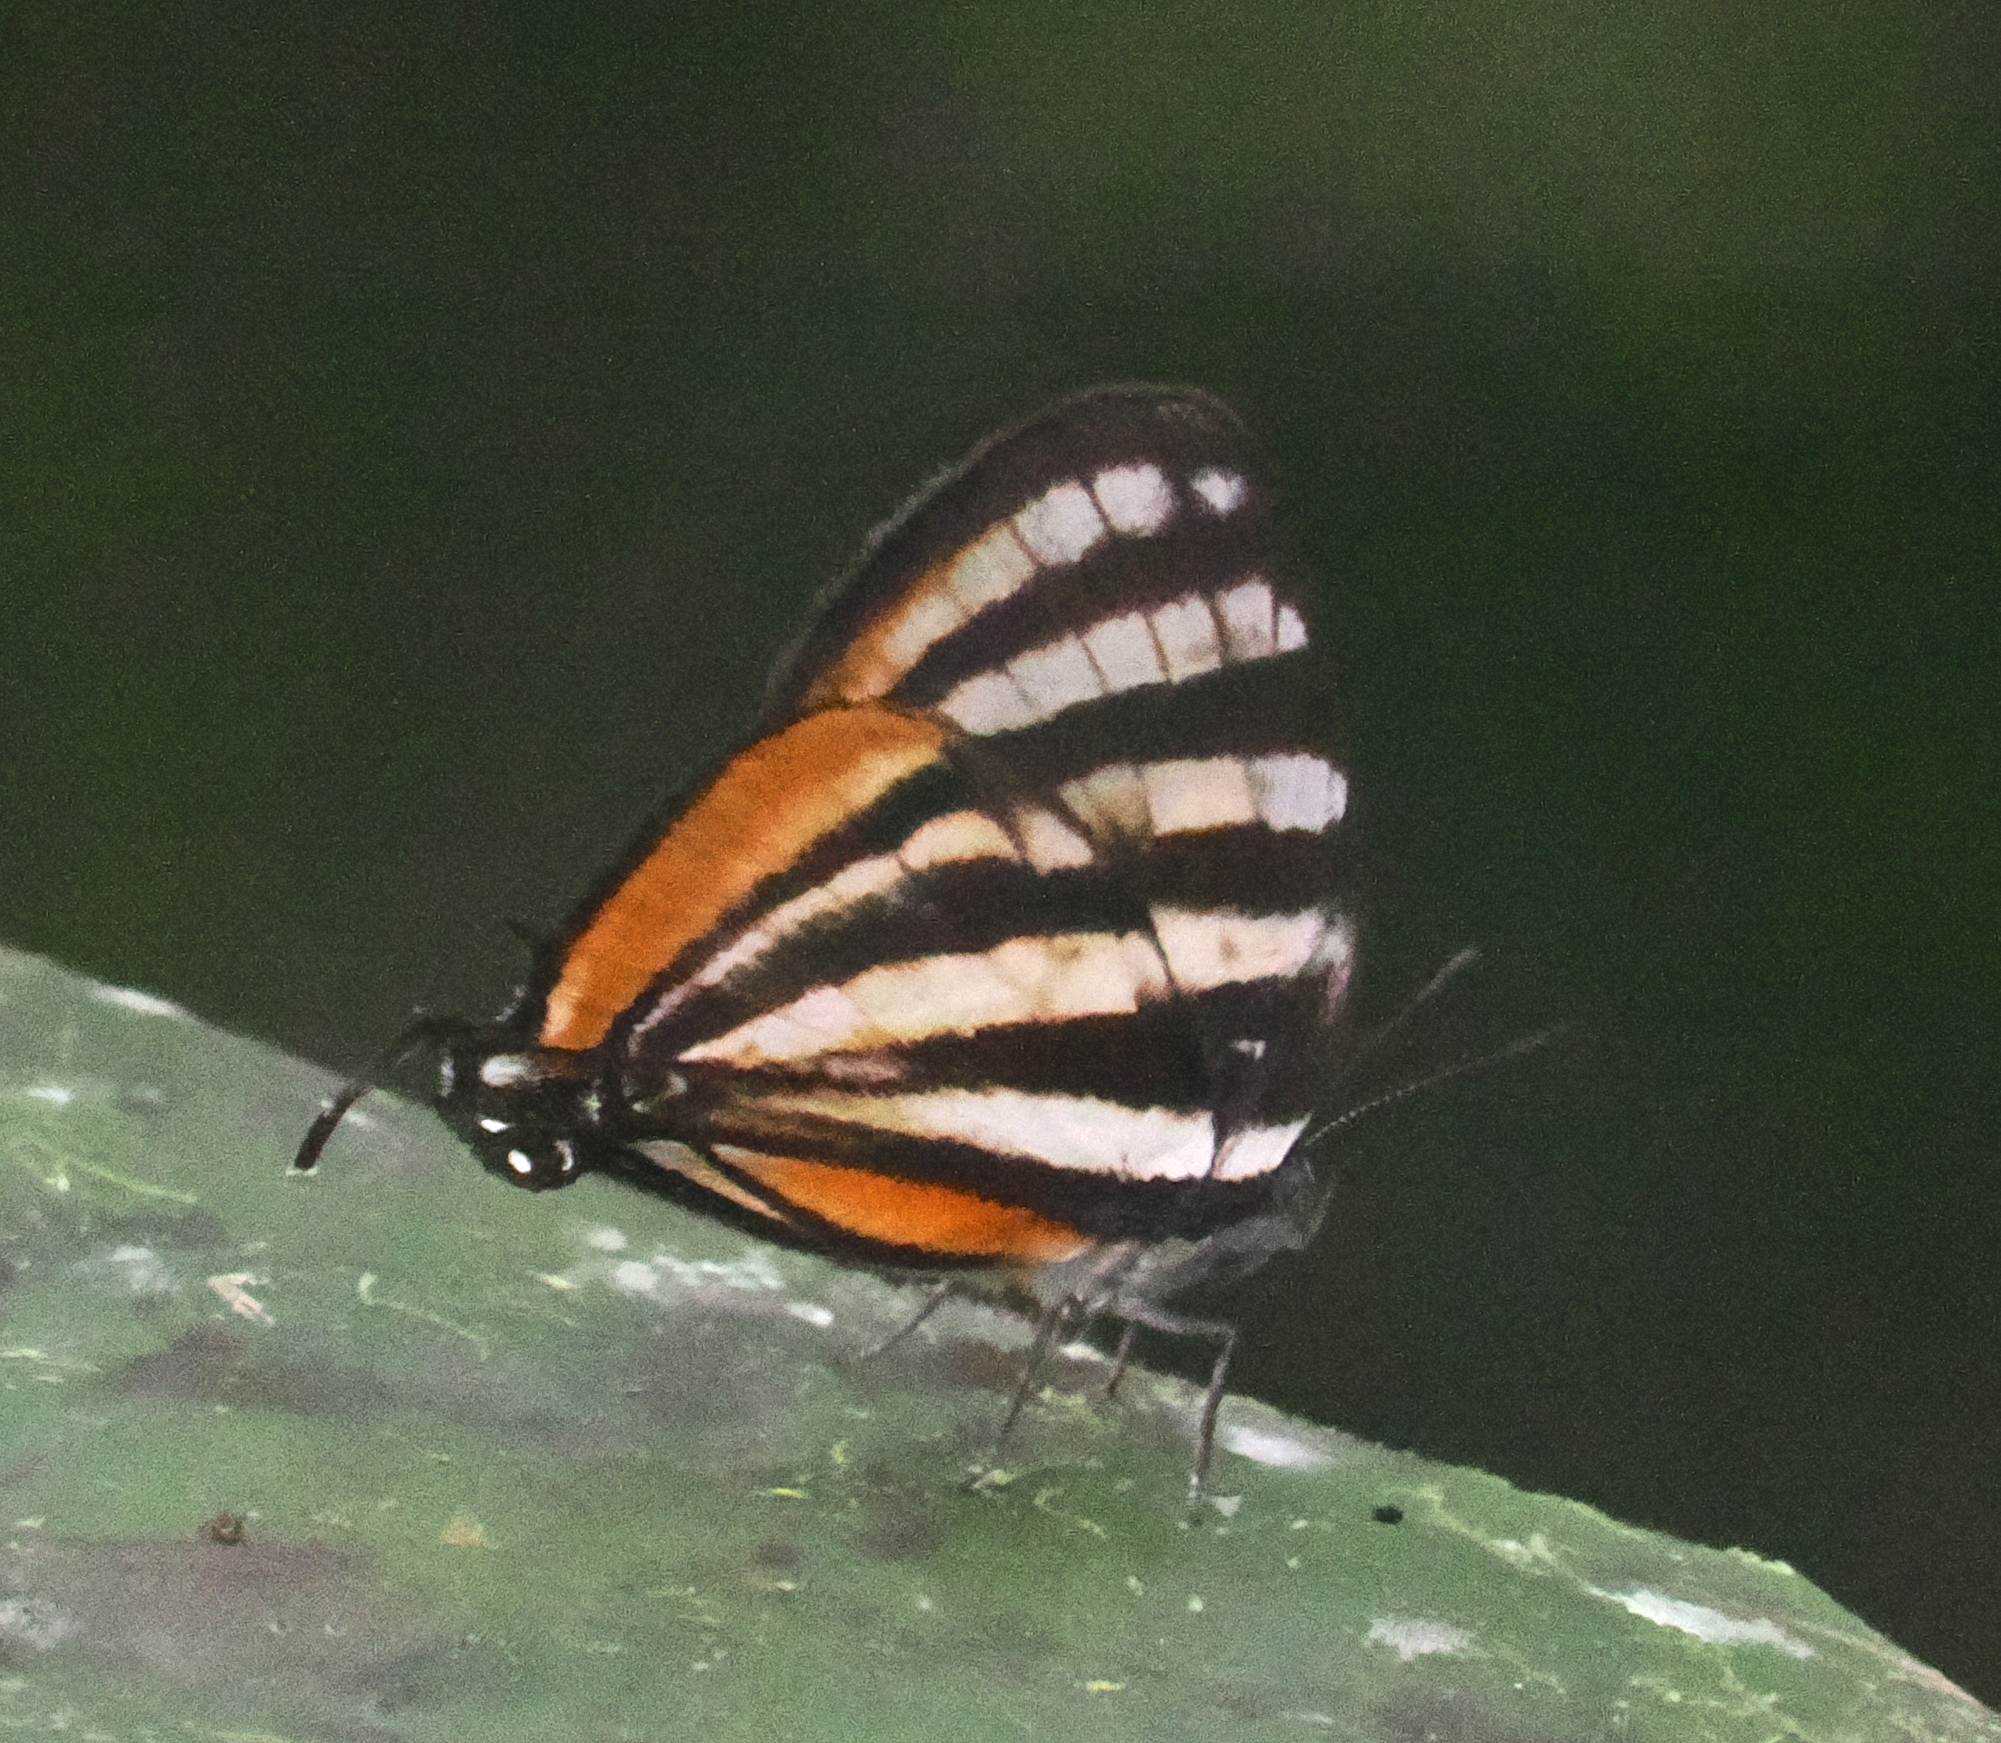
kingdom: Animalia
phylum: Arthropoda
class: Insecta
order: Lepidoptera
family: Lycaenidae
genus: Arawacus
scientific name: Arawacus lincoides
